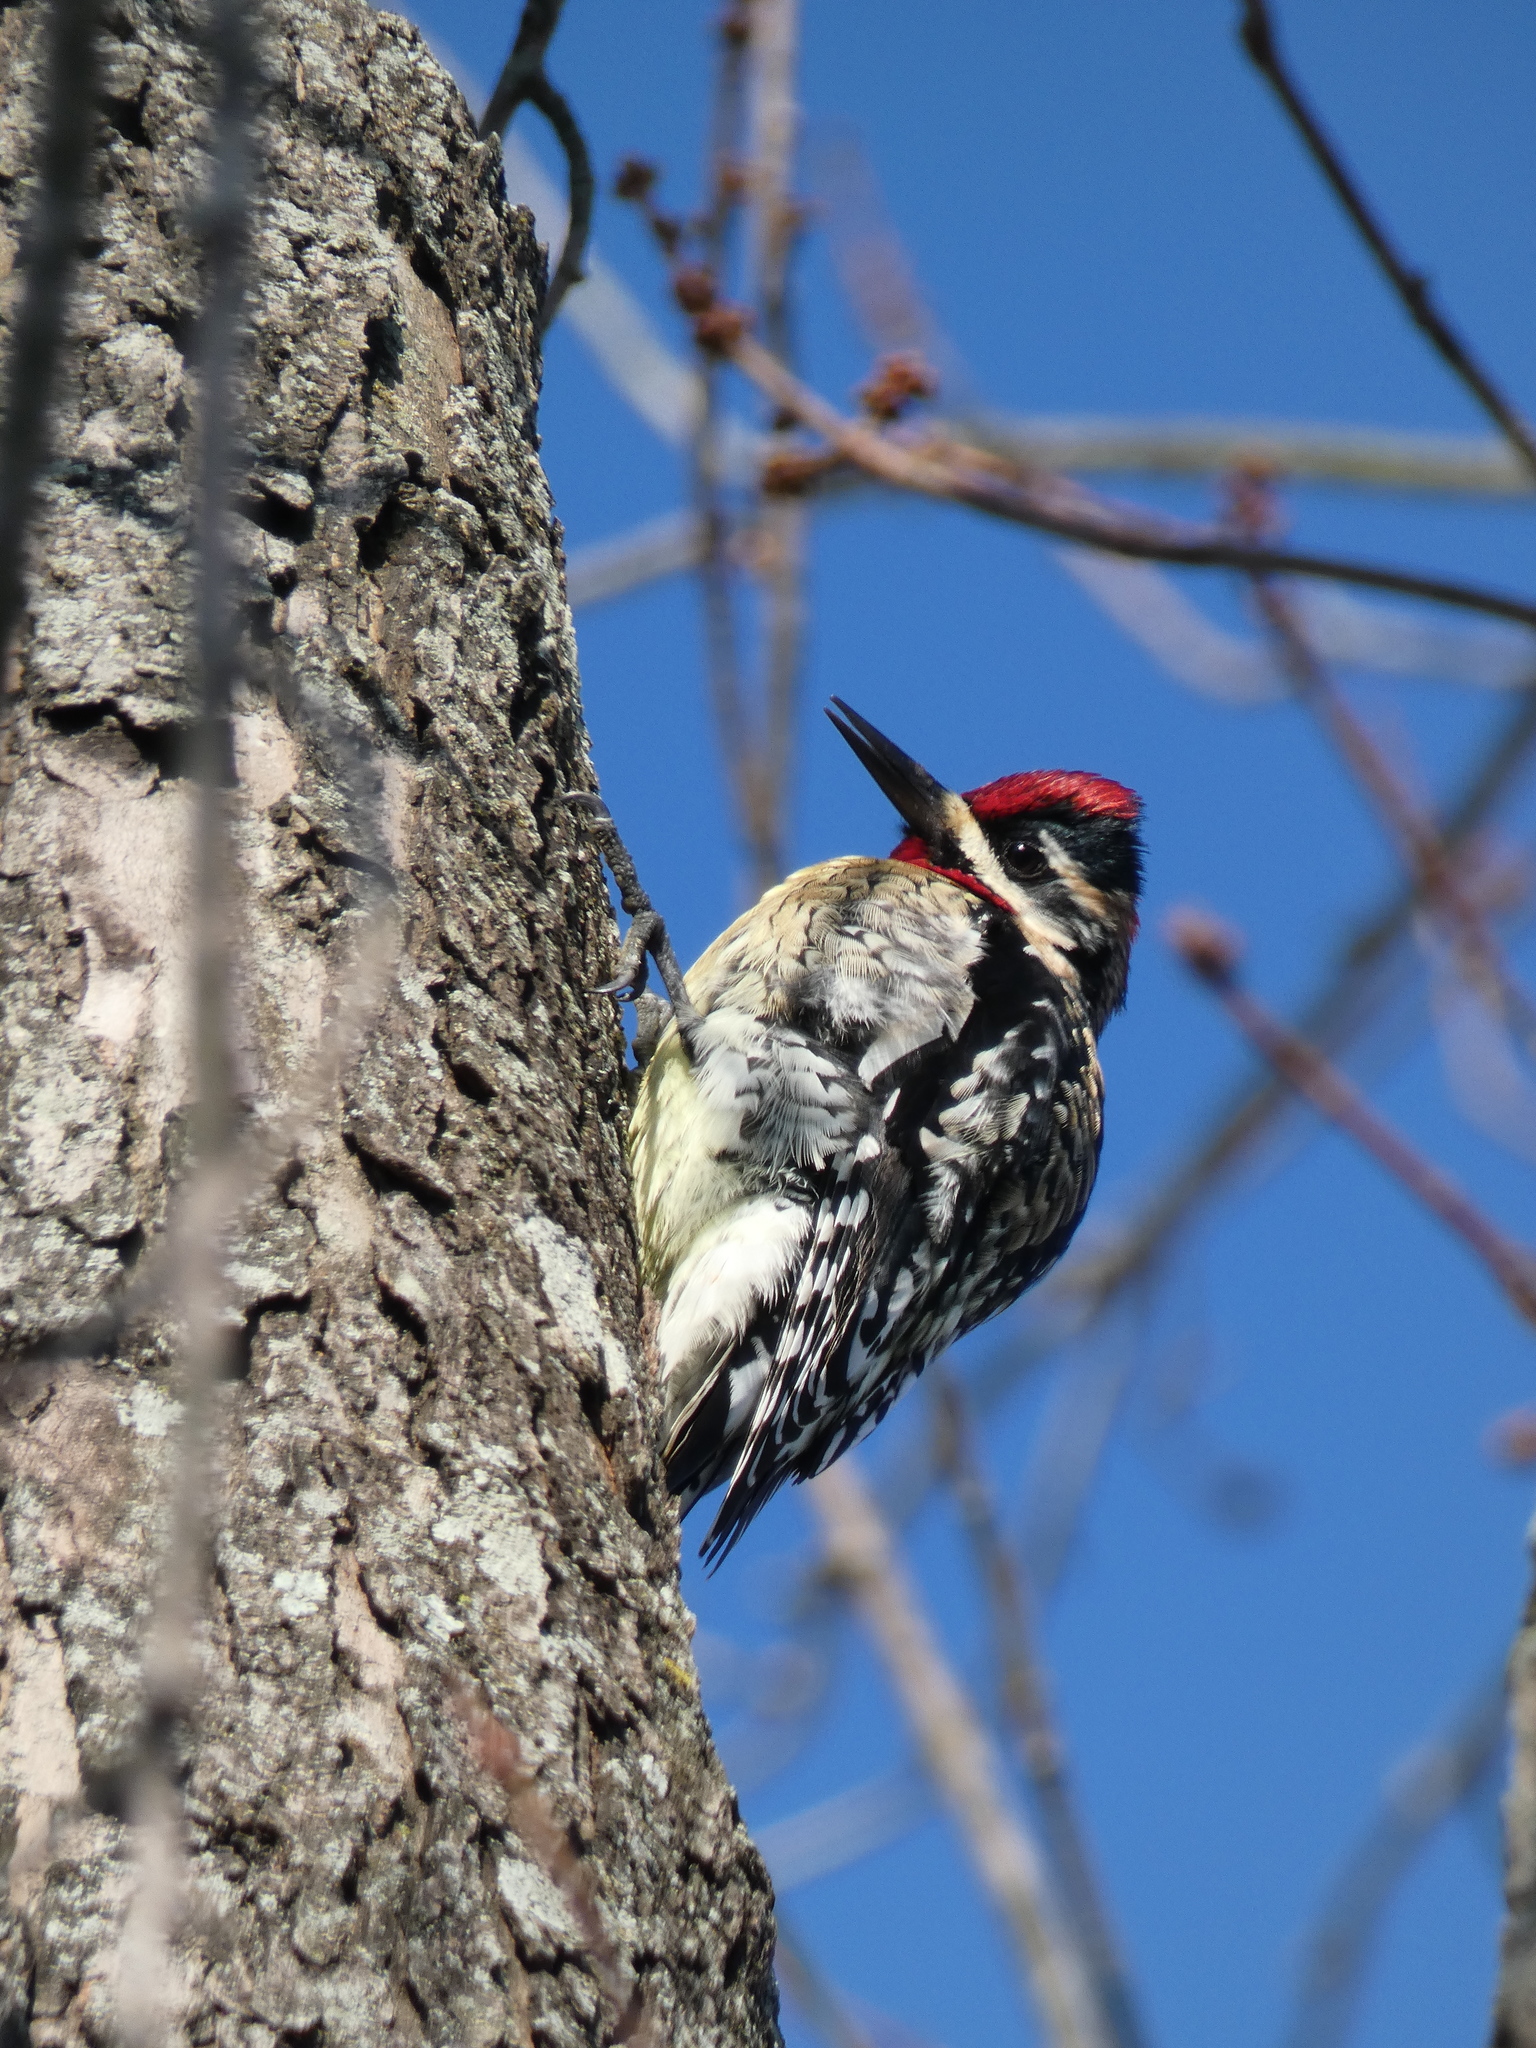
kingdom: Animalia
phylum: Chordata
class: Aves
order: Piciformes
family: Picidae
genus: Sphyrapicus
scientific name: Sphyrapicus varius
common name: Yellow-bellied sapsucker
